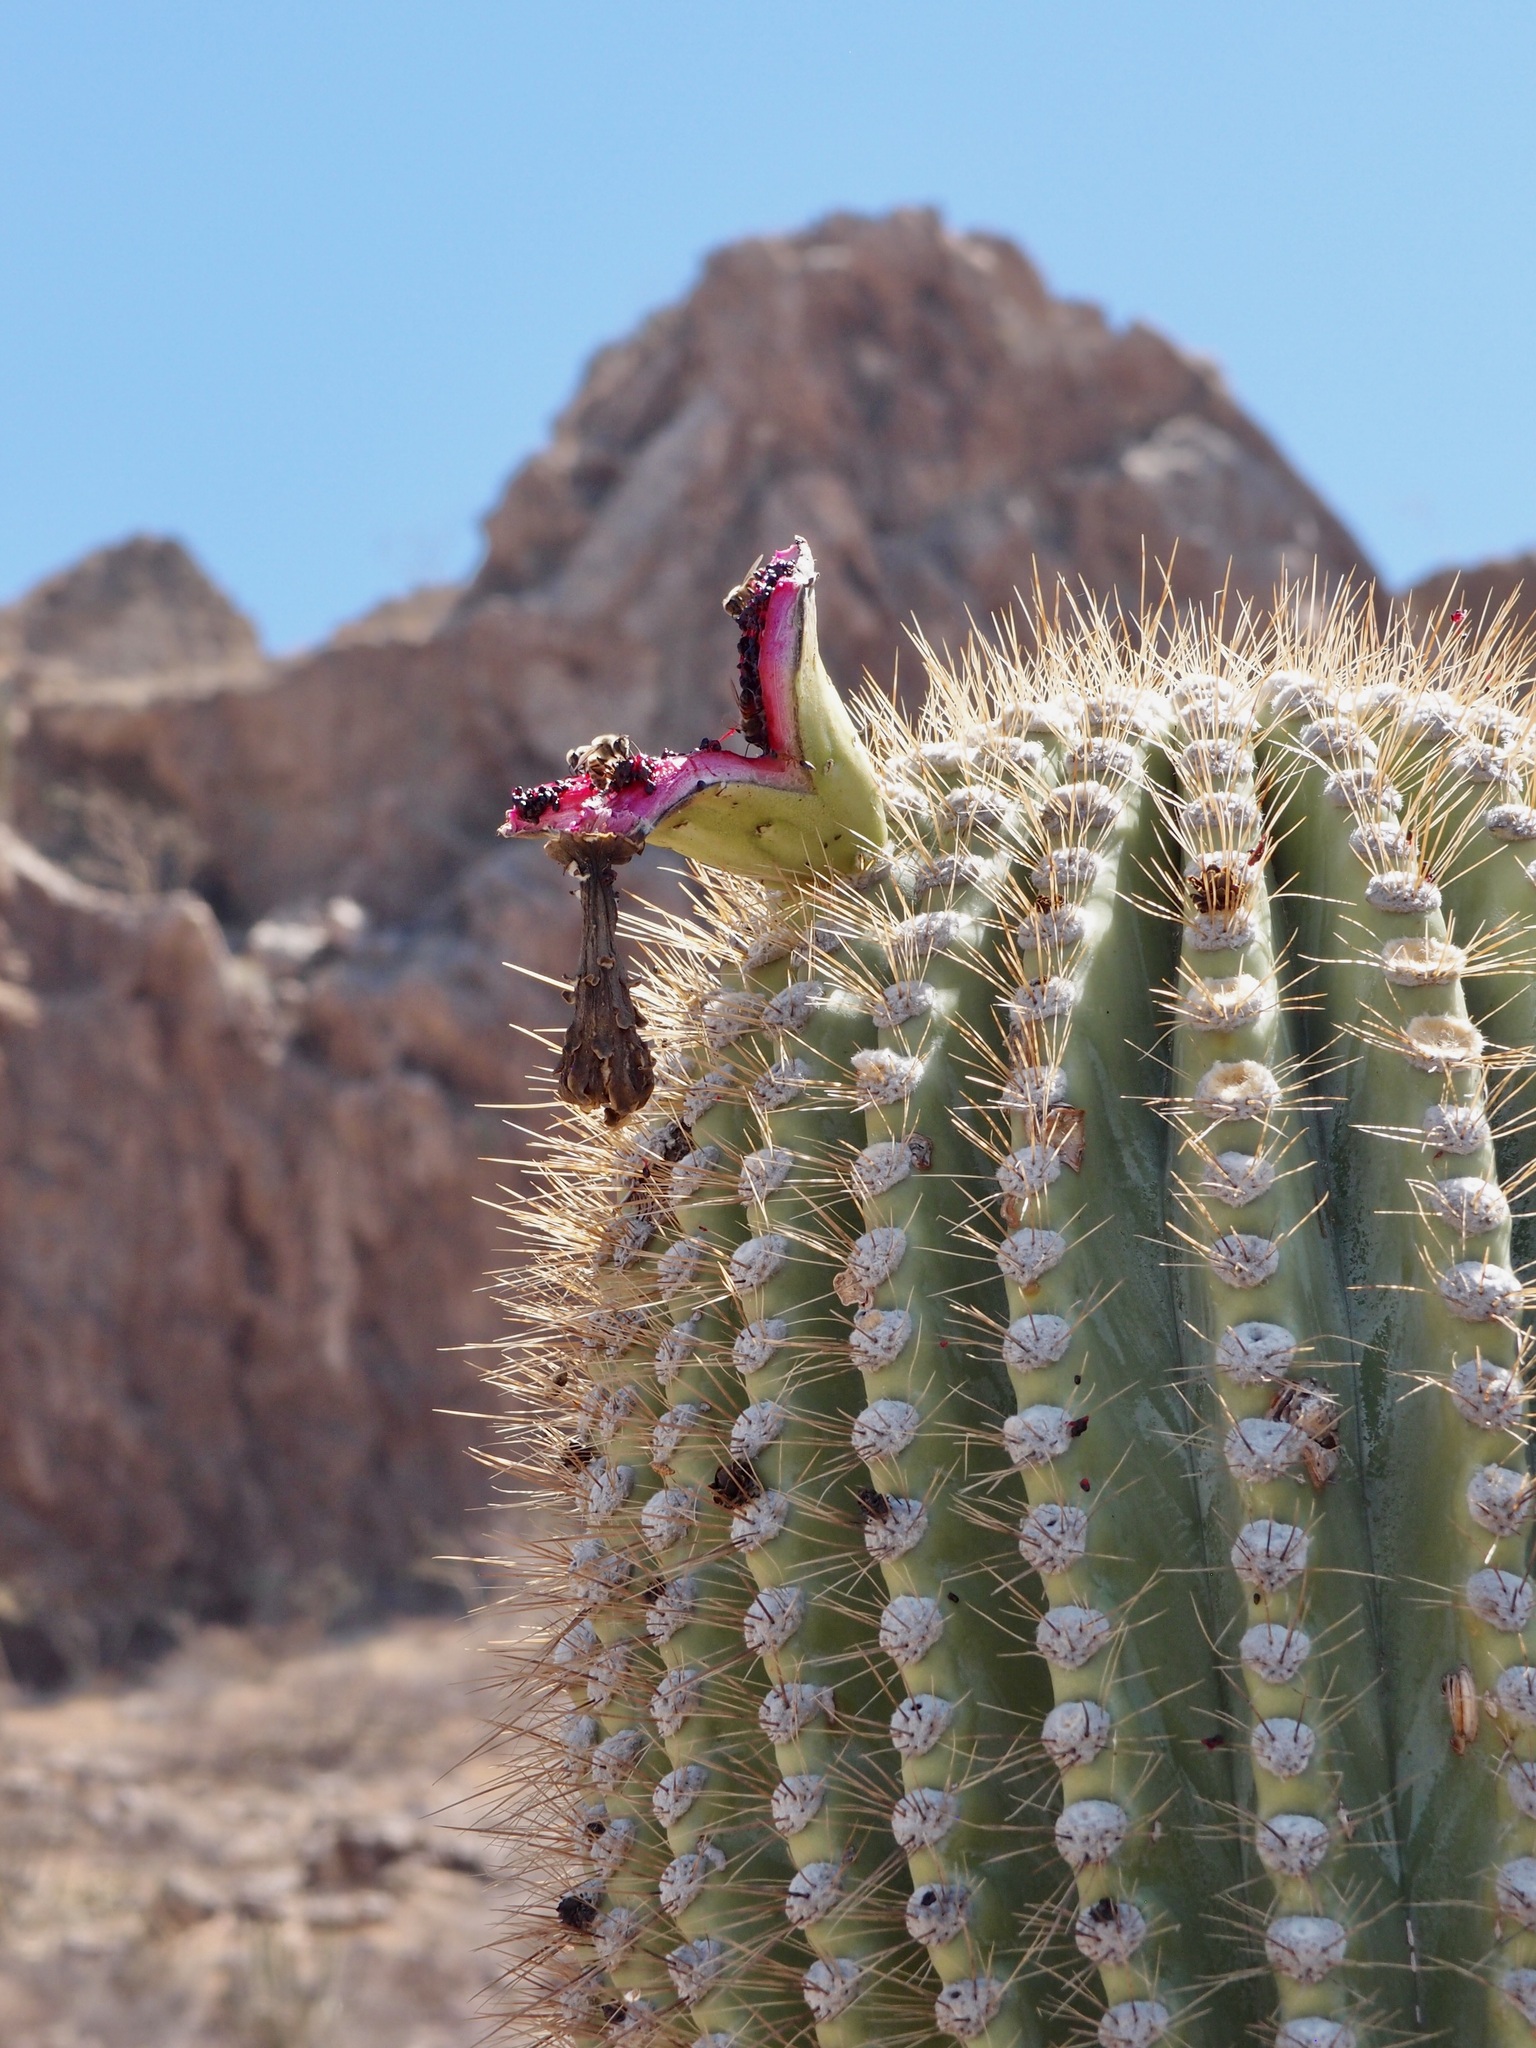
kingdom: Plantae
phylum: Tracheophyta
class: Magnoliopsida
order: Caryophyllales
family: Cactaceae
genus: Carnegiea
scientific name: Carnegiea gigantea
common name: Saguaro
